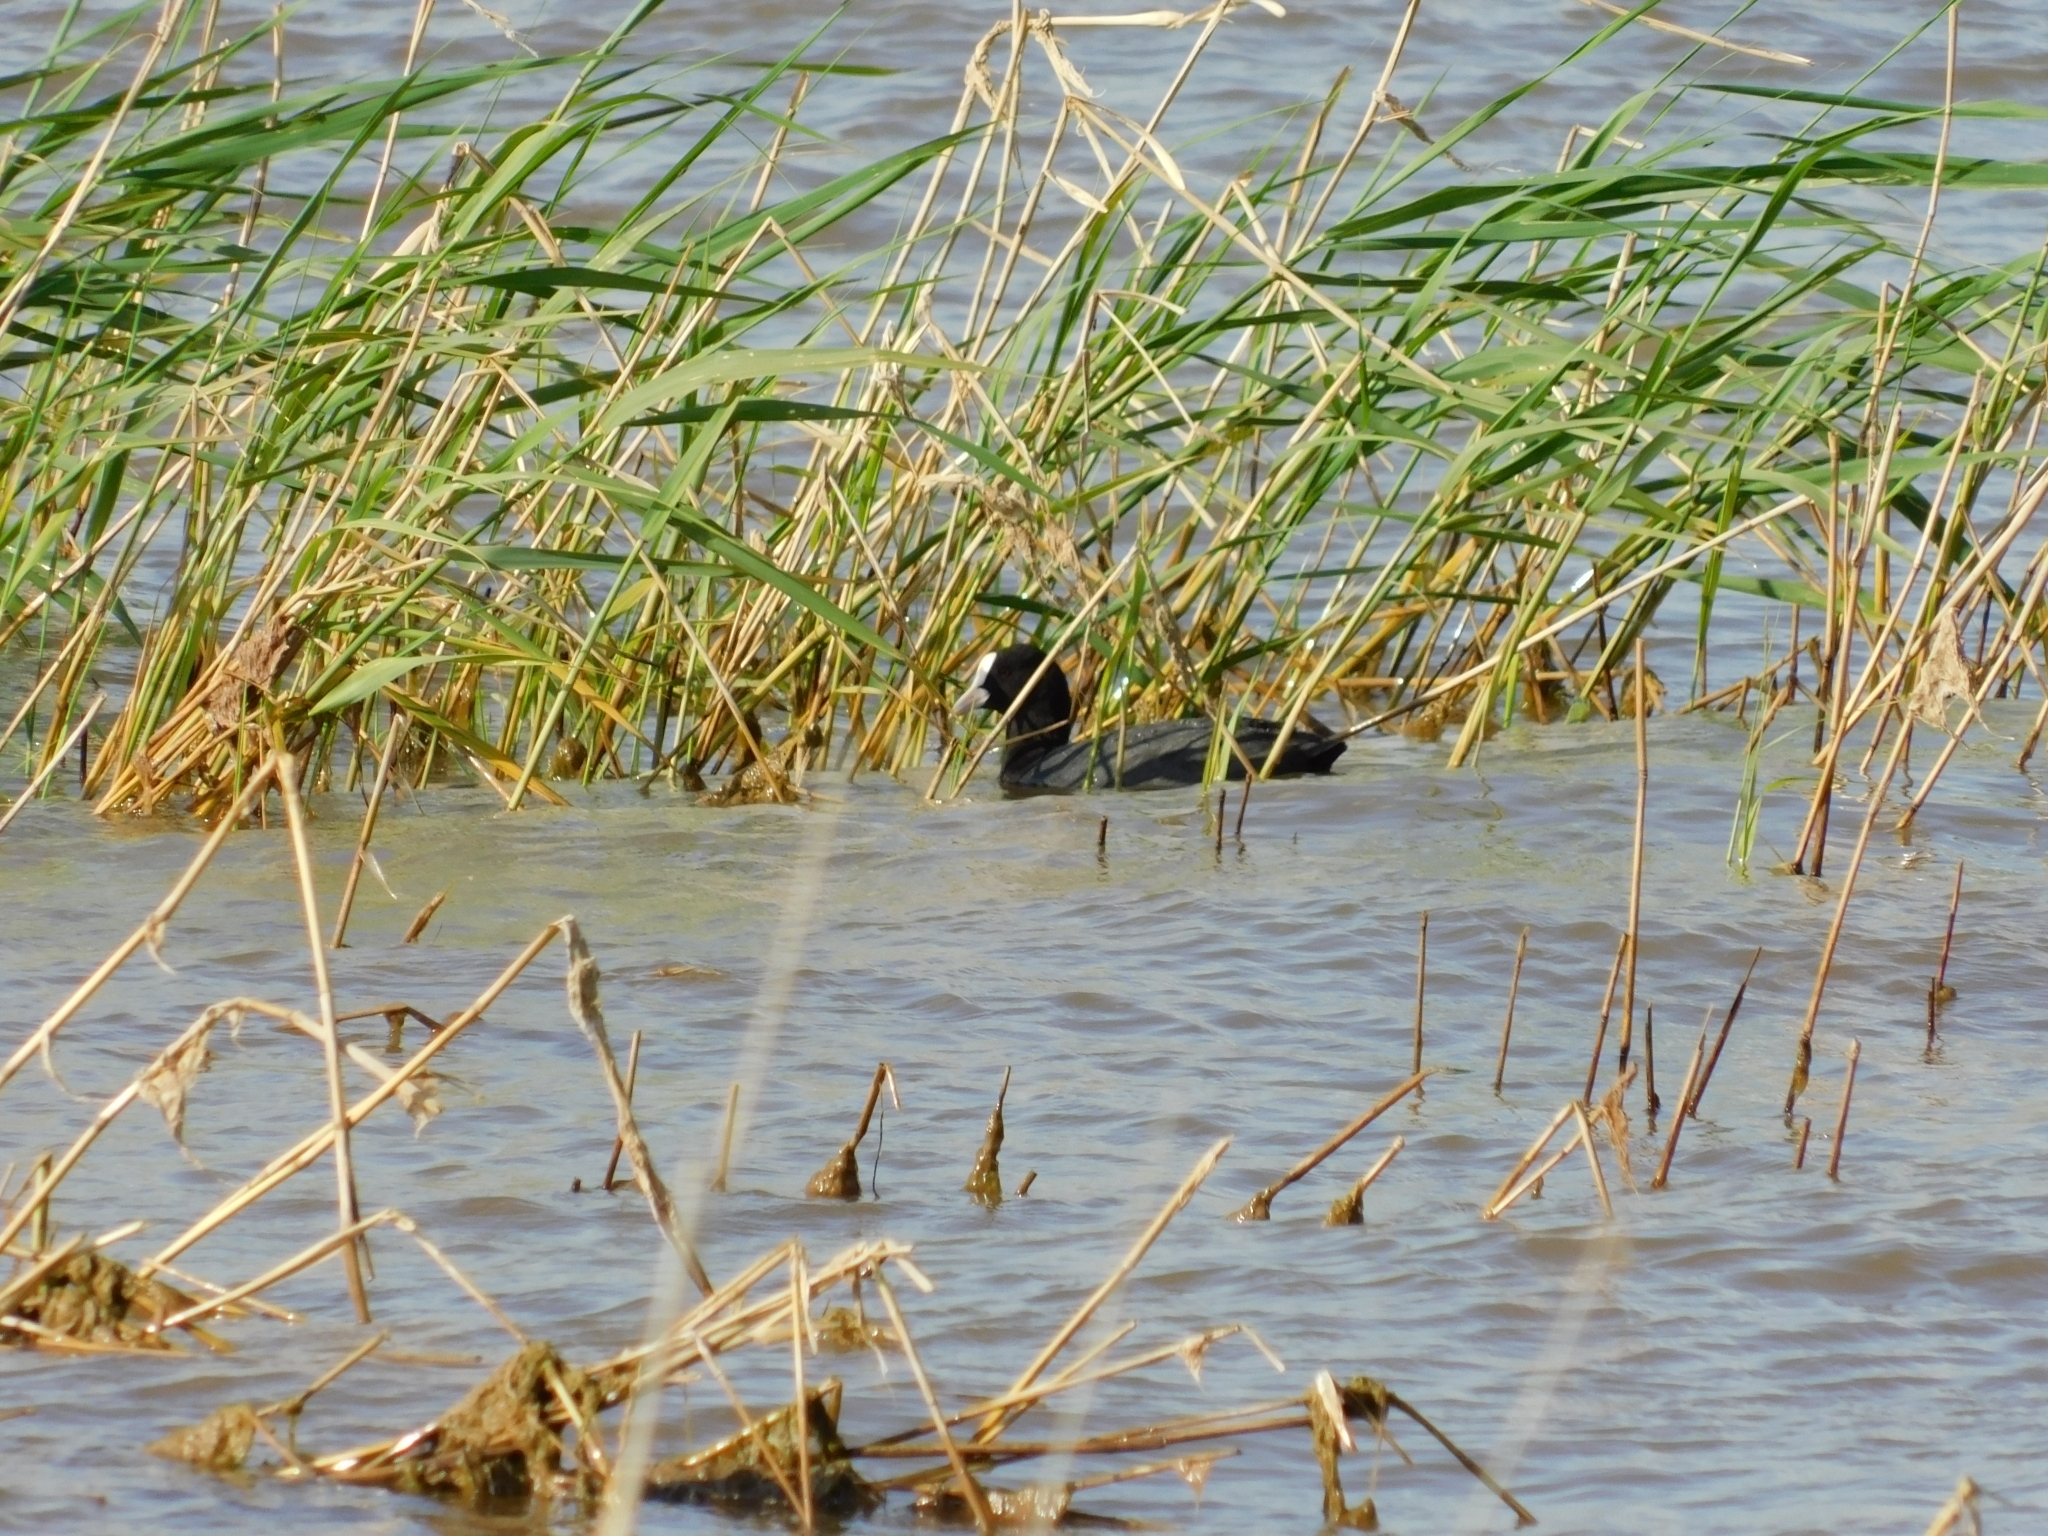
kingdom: Animalia
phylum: Chordata
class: Aves
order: Gruiformes
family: Rallidae
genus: Fulica
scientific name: Fulica atra
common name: Eurasian coot
